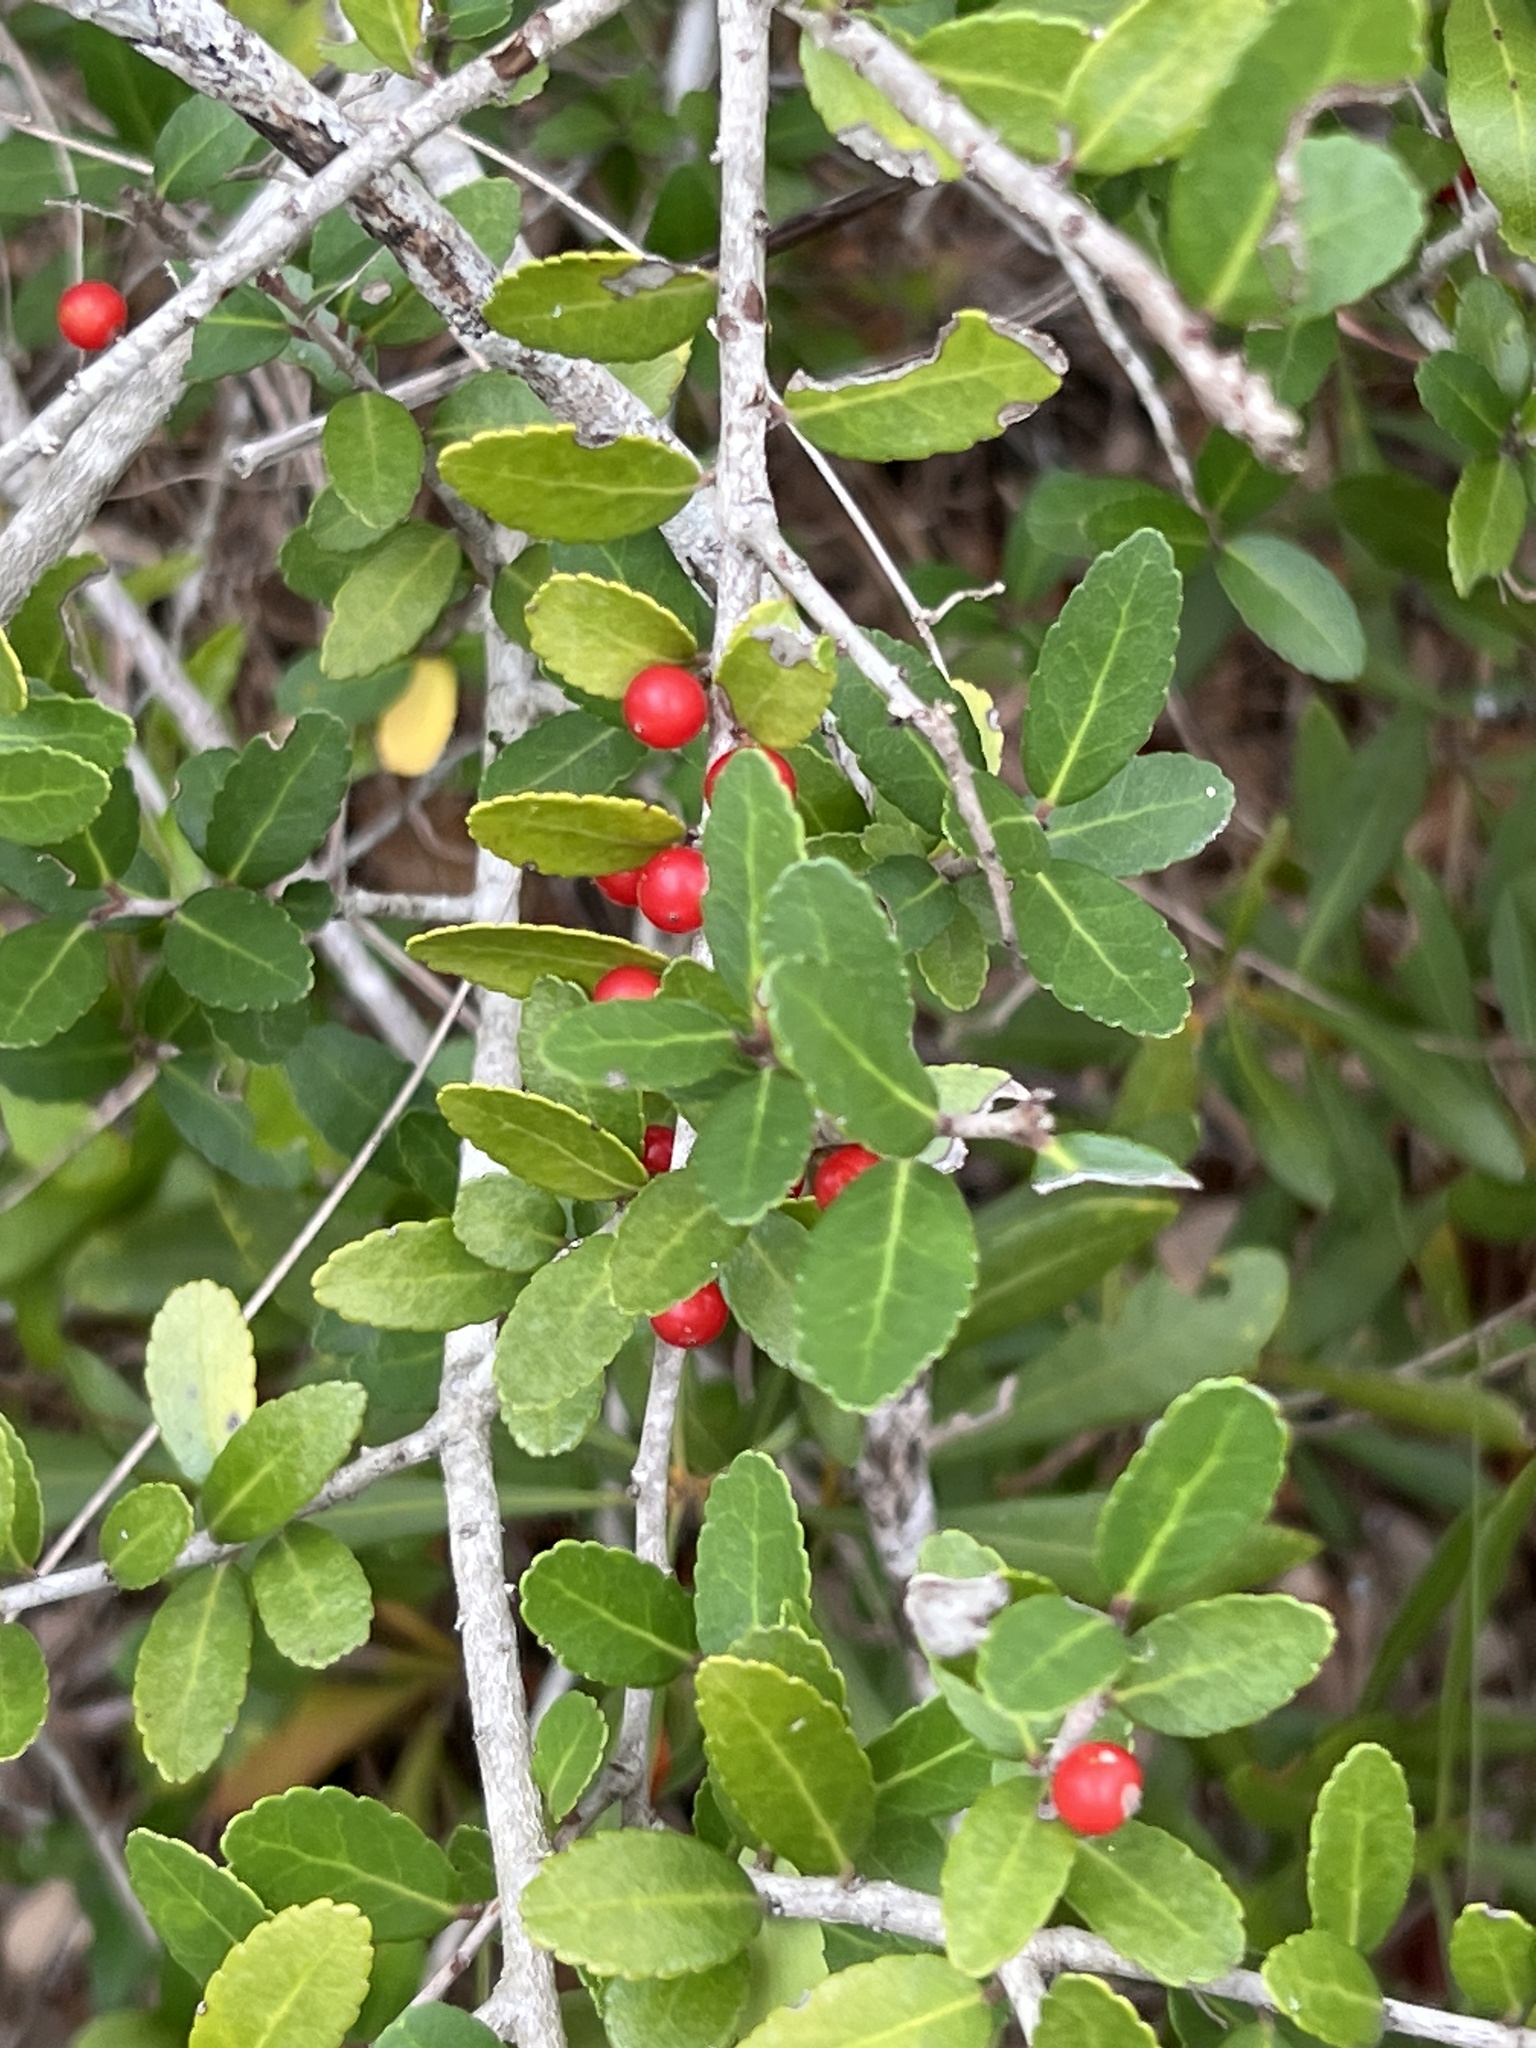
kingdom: Plantae
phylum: Tracheophyta
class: Magnoliopsida
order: Aquifoliales
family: Aquifoliaceae
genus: Ilex
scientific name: Ilex vomitoria
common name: Yaupon holly
